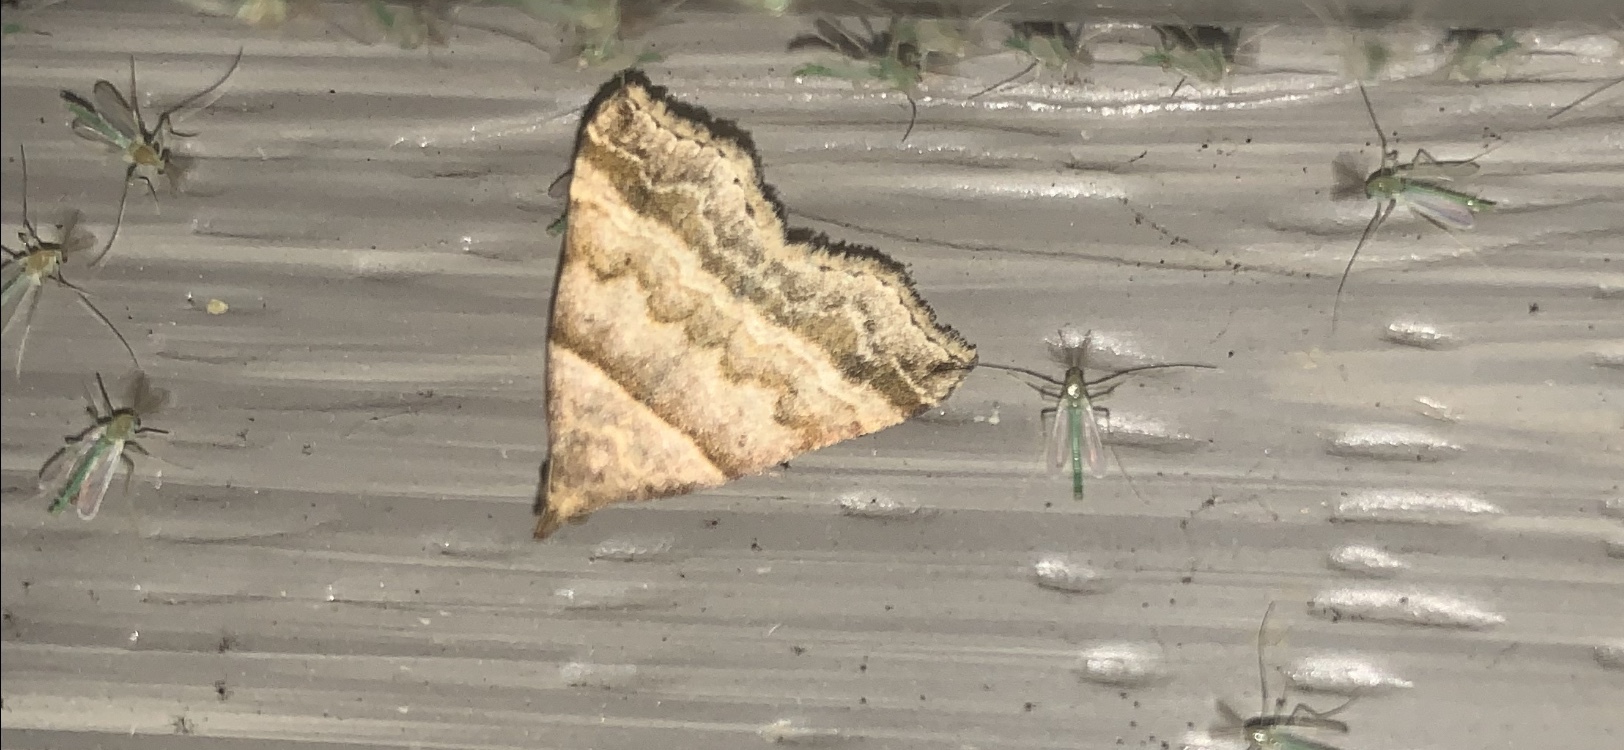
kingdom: Animalia
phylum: Arthropoda
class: Insecta
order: Lepidoptera
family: Erebidae
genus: Phaeolita
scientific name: Phaeolita pyramusalis
